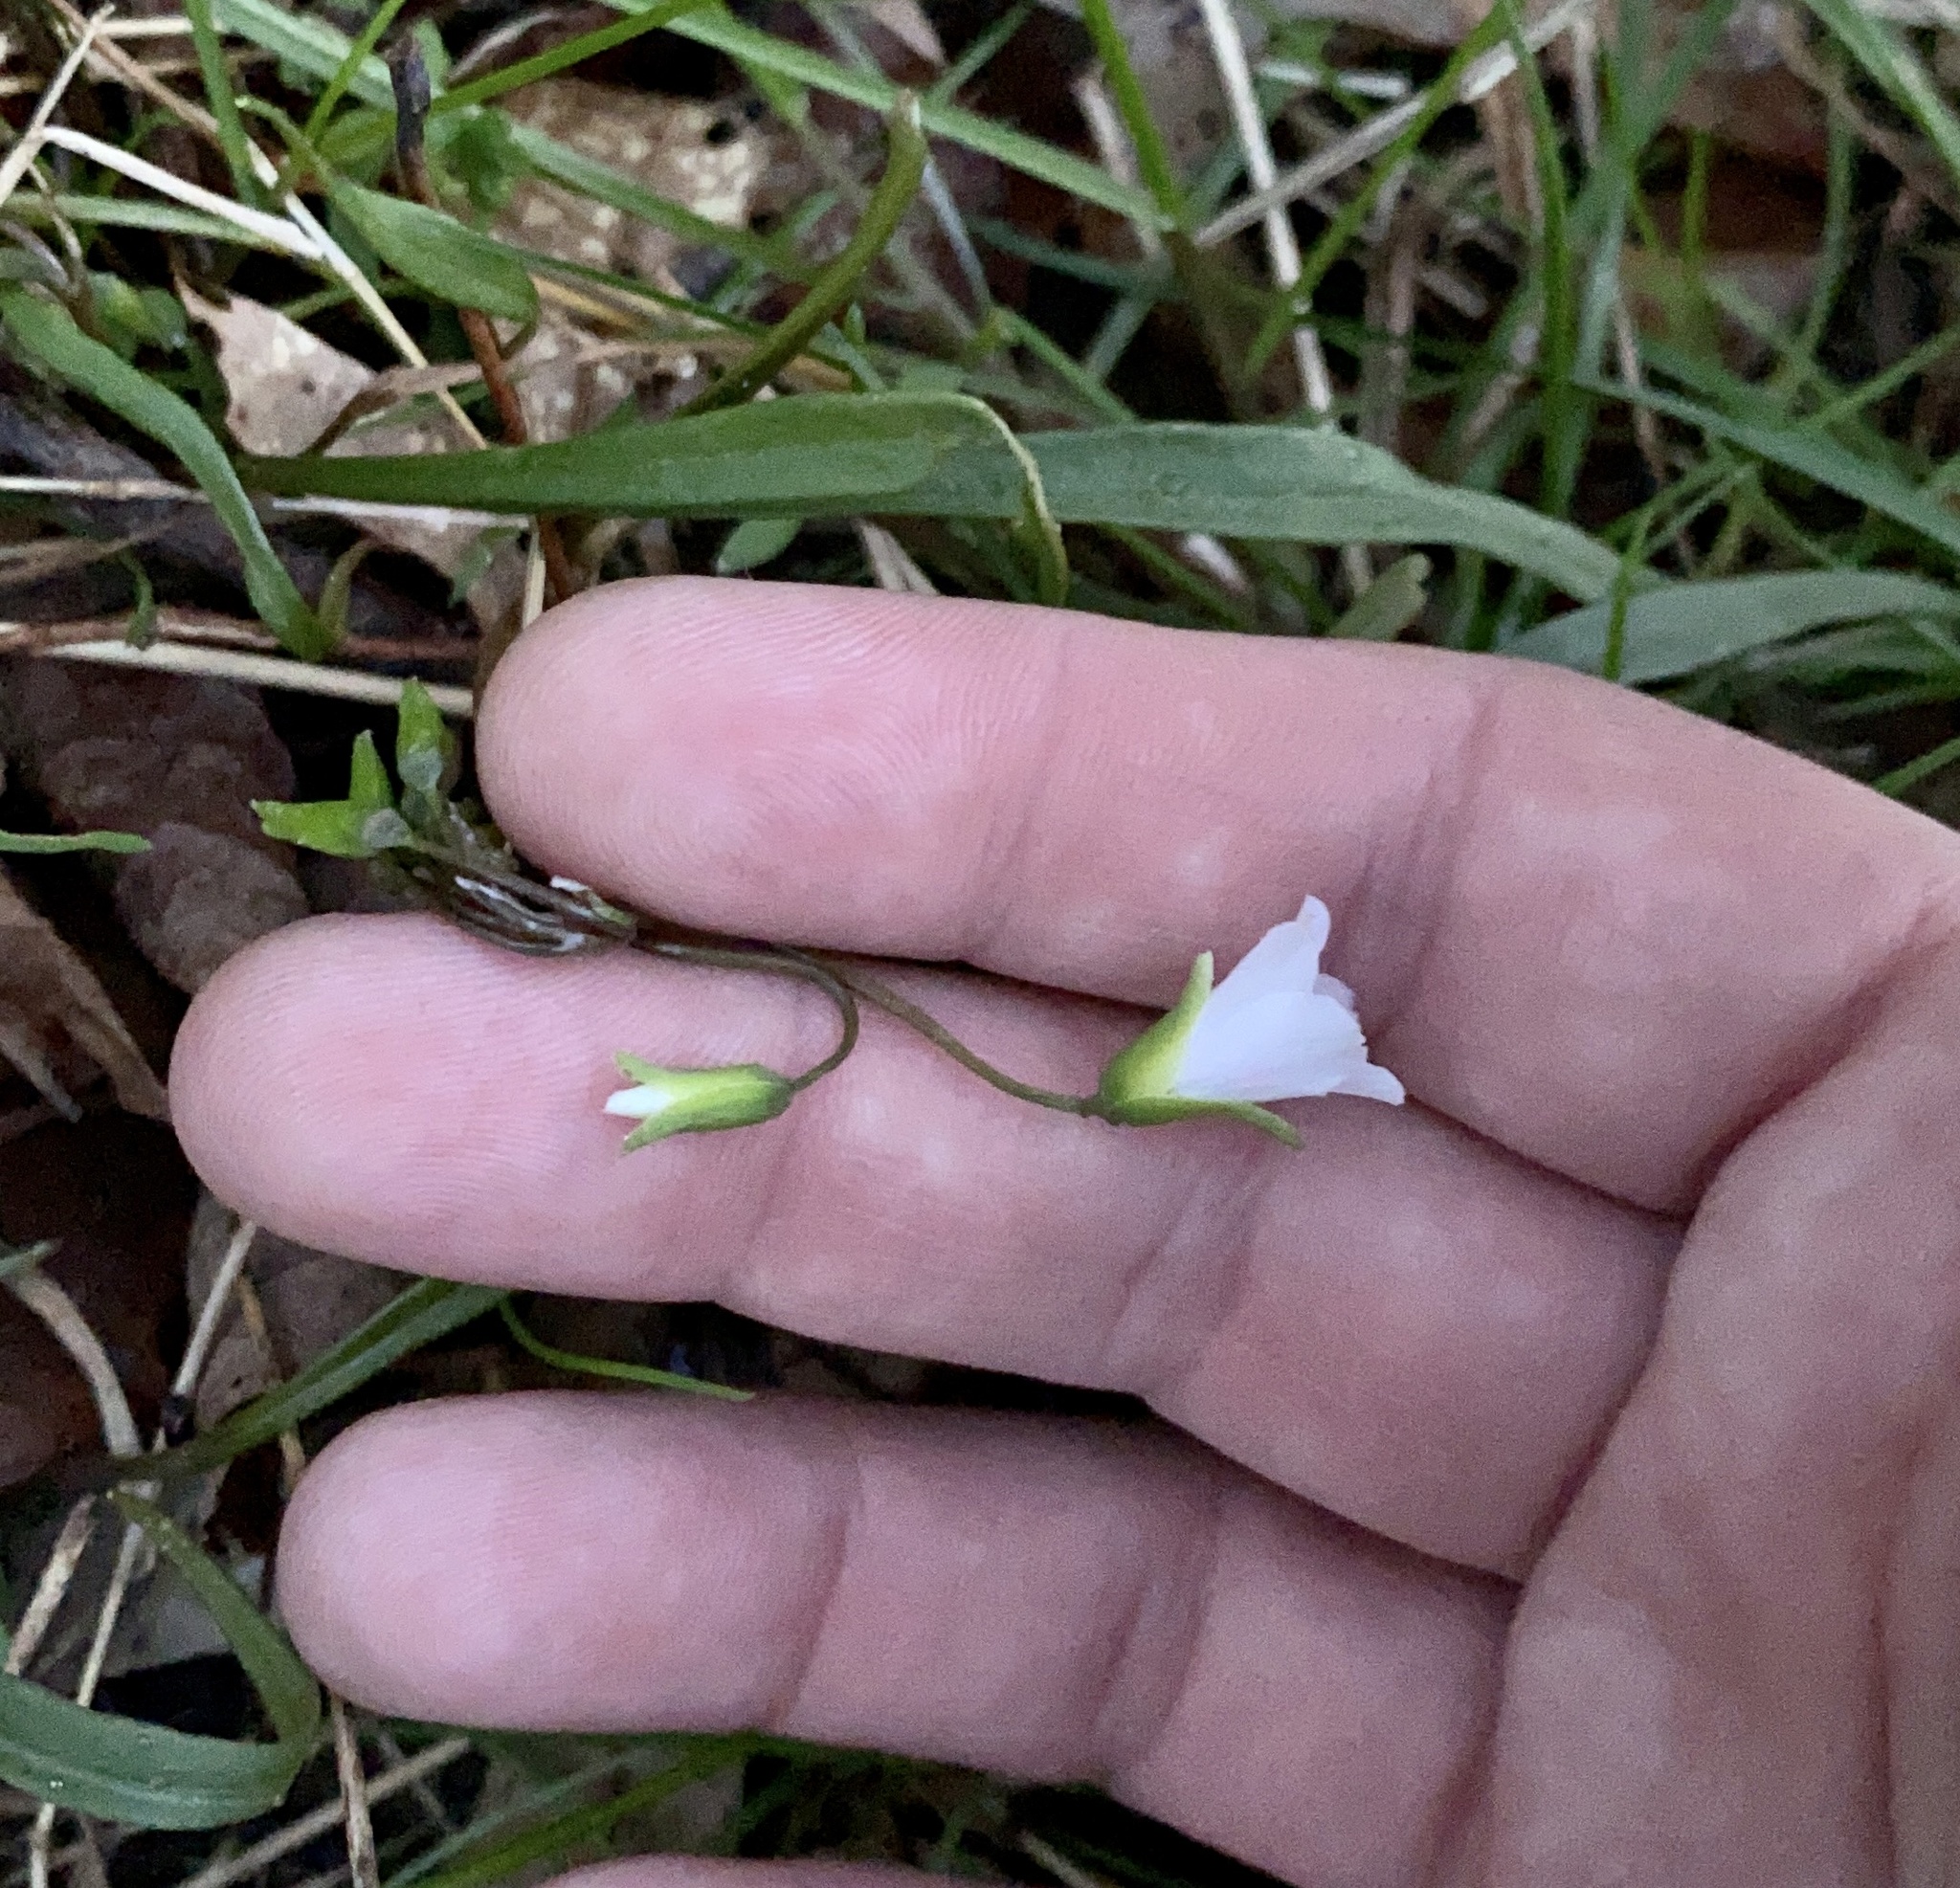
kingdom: Plantae
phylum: Tracheophyta
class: Magnoliopsida
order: Caryophyllales
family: Montiaceae
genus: Claytonia
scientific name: Claytonia virginica
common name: Virginia springbeauty
